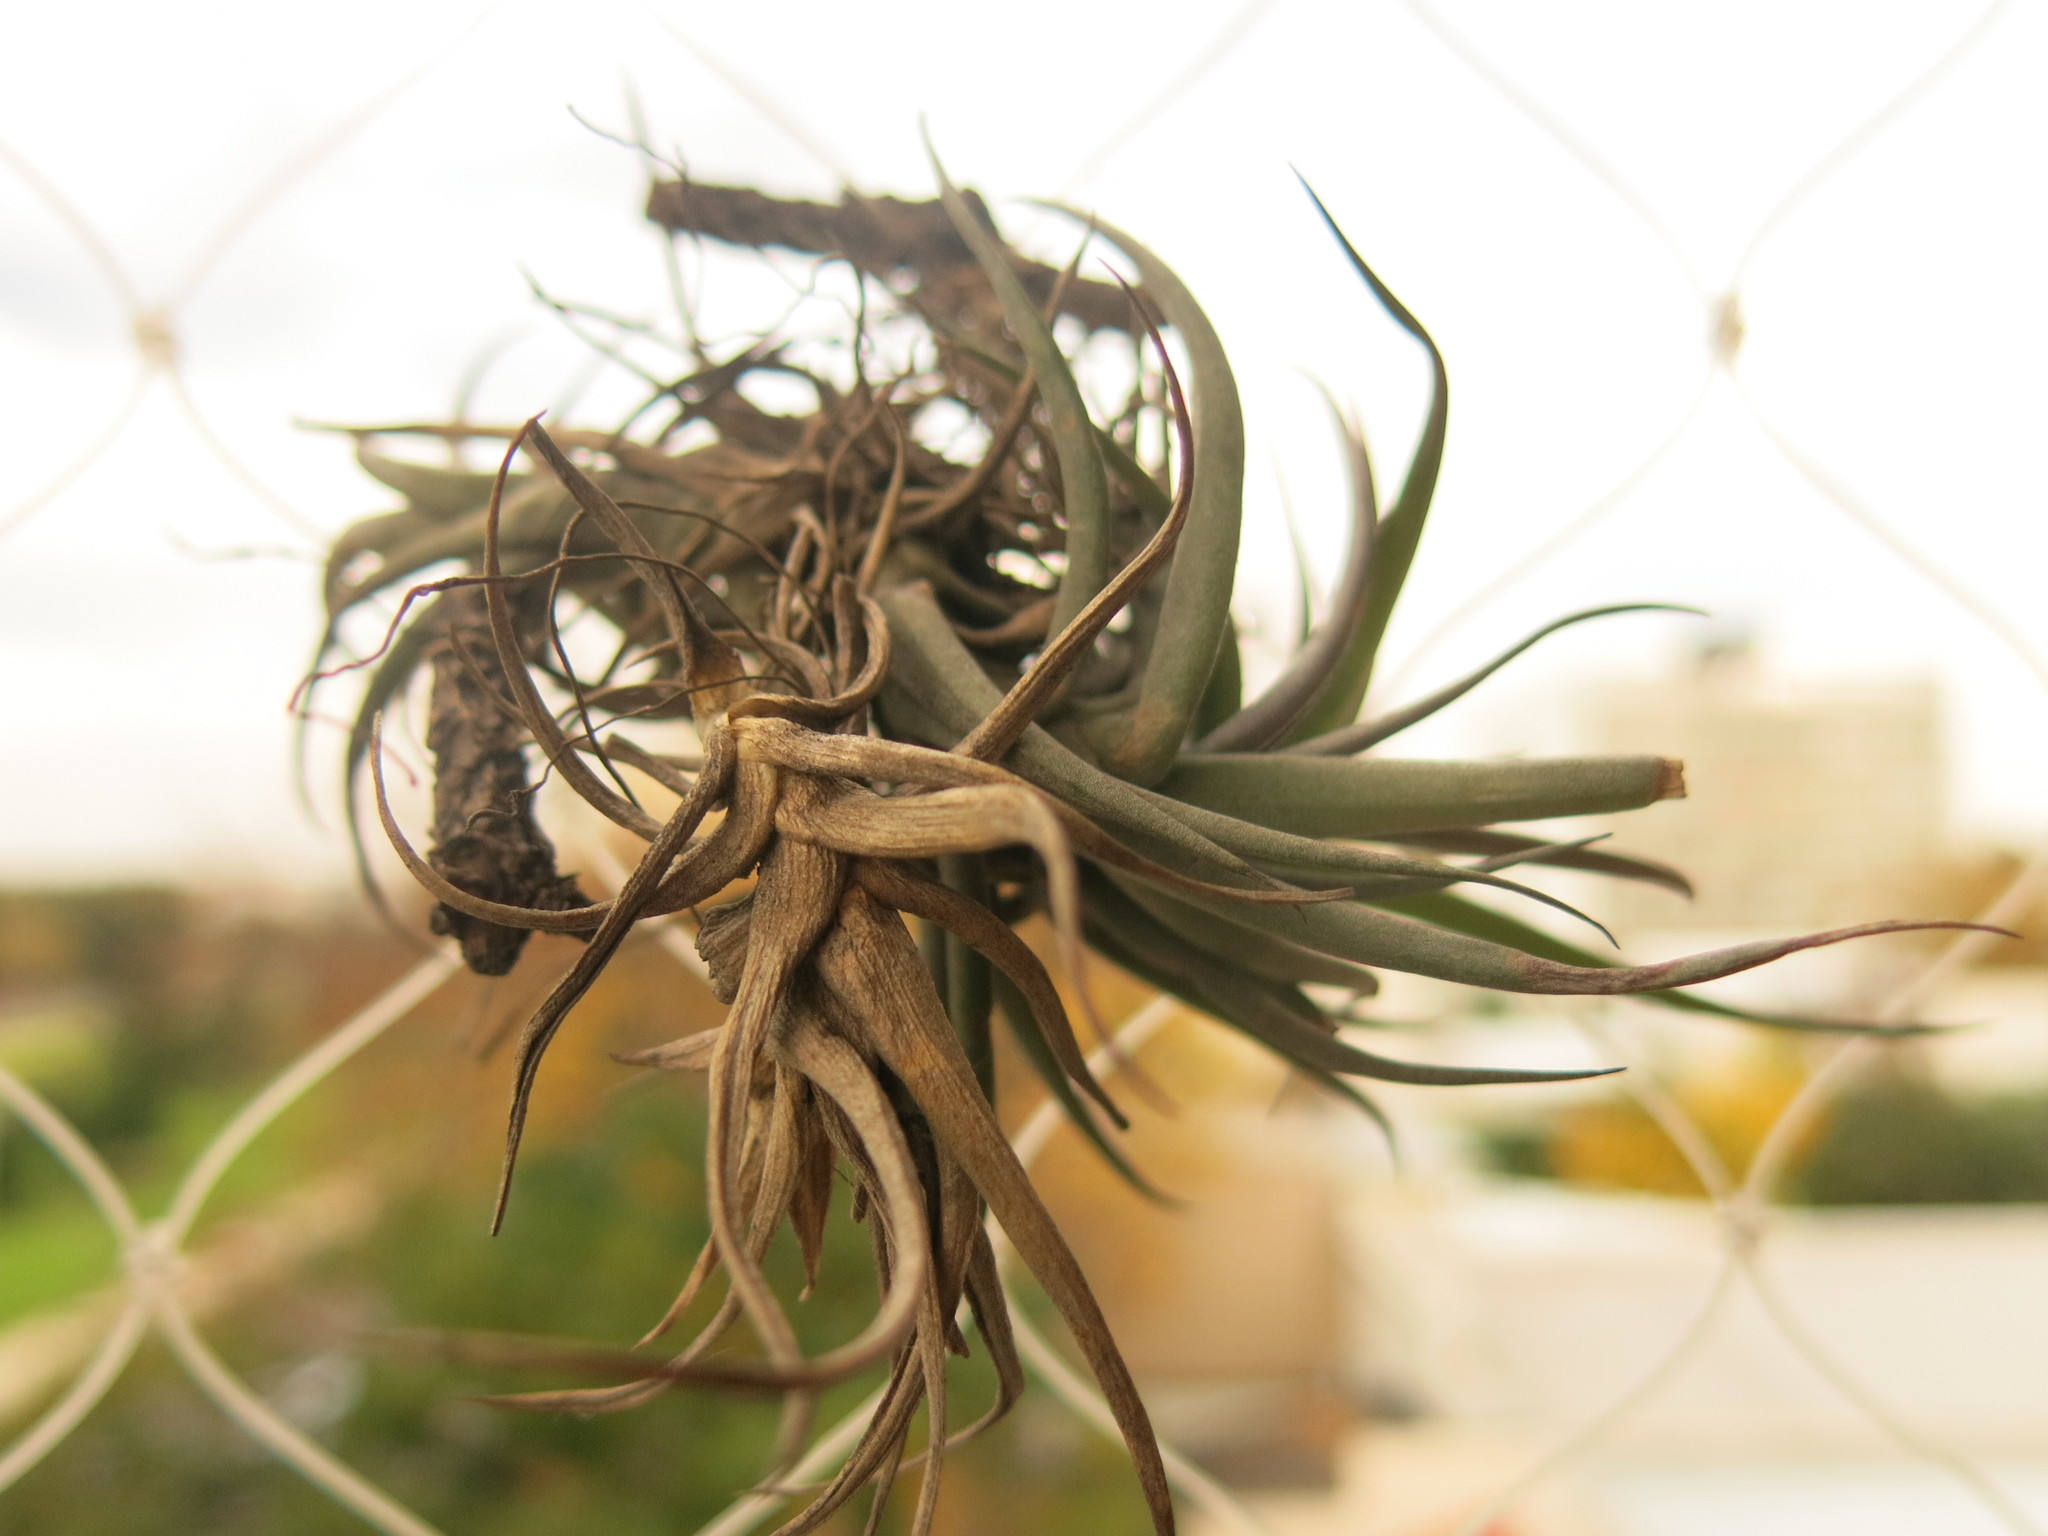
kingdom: Plantae
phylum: Tracheophyta
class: Liliopsida
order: Poales
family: Bromeliaceae
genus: Tillandsia
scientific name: Tillandsia aeranthos
